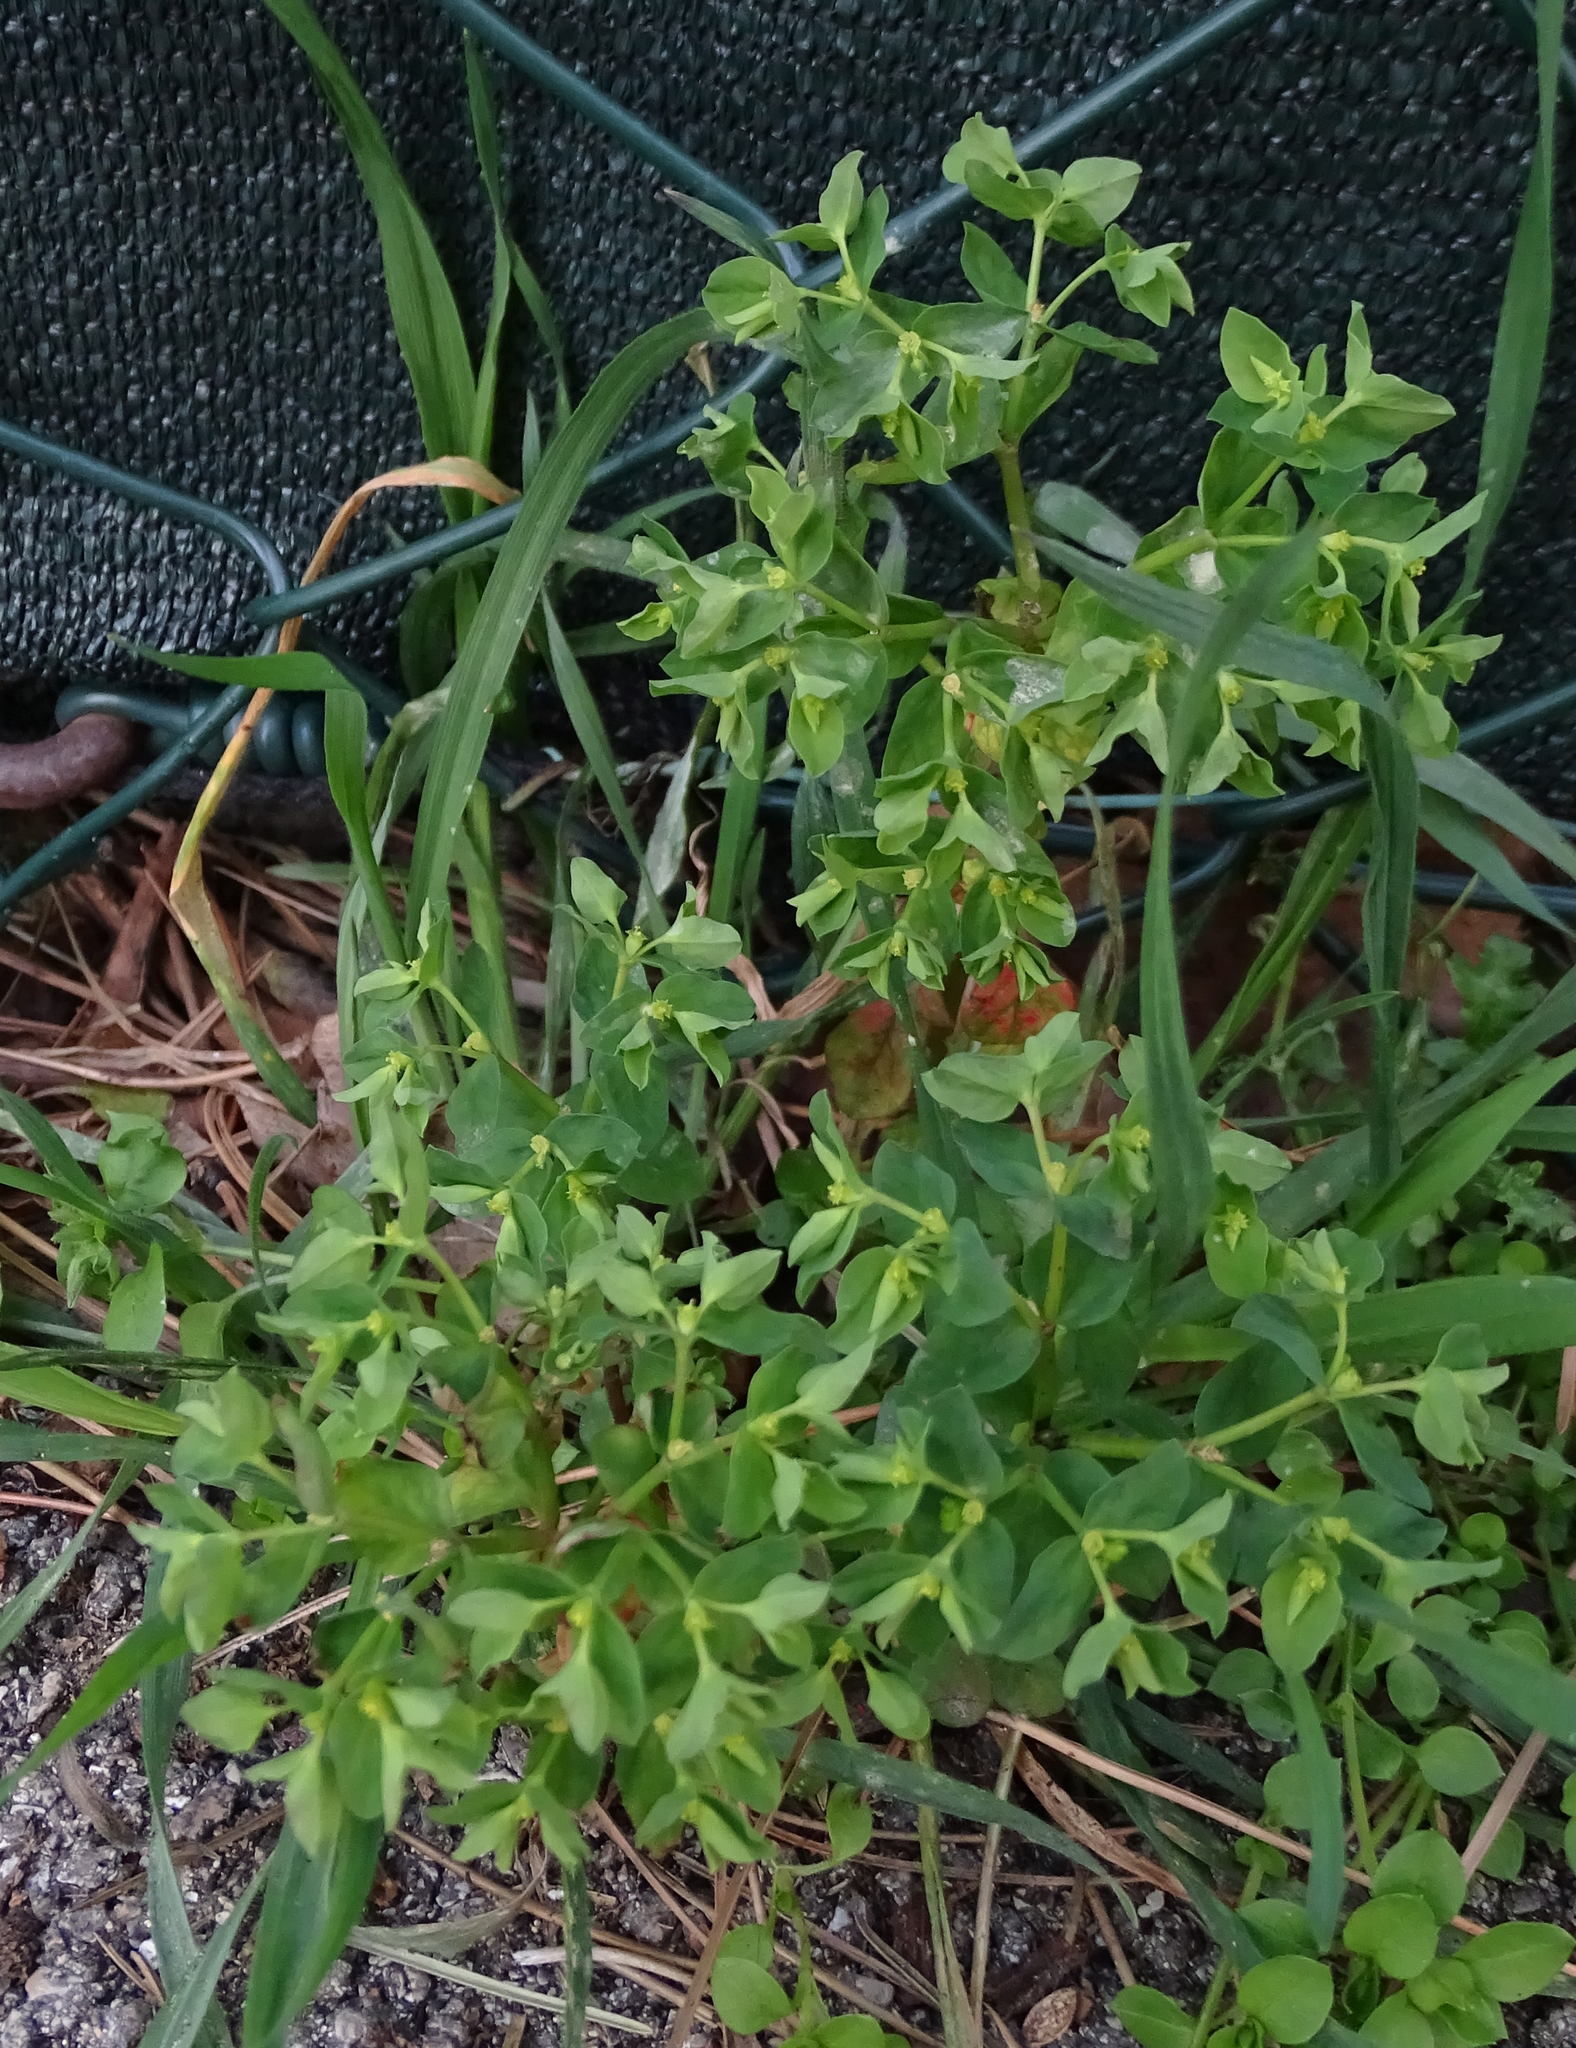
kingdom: Plantae
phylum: Tracheophyta
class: Magnoliopsida
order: Malpighiales
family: Euphorbiaceae
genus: Euphorbia
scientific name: Euphorbia peplus
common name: Petty spurge
